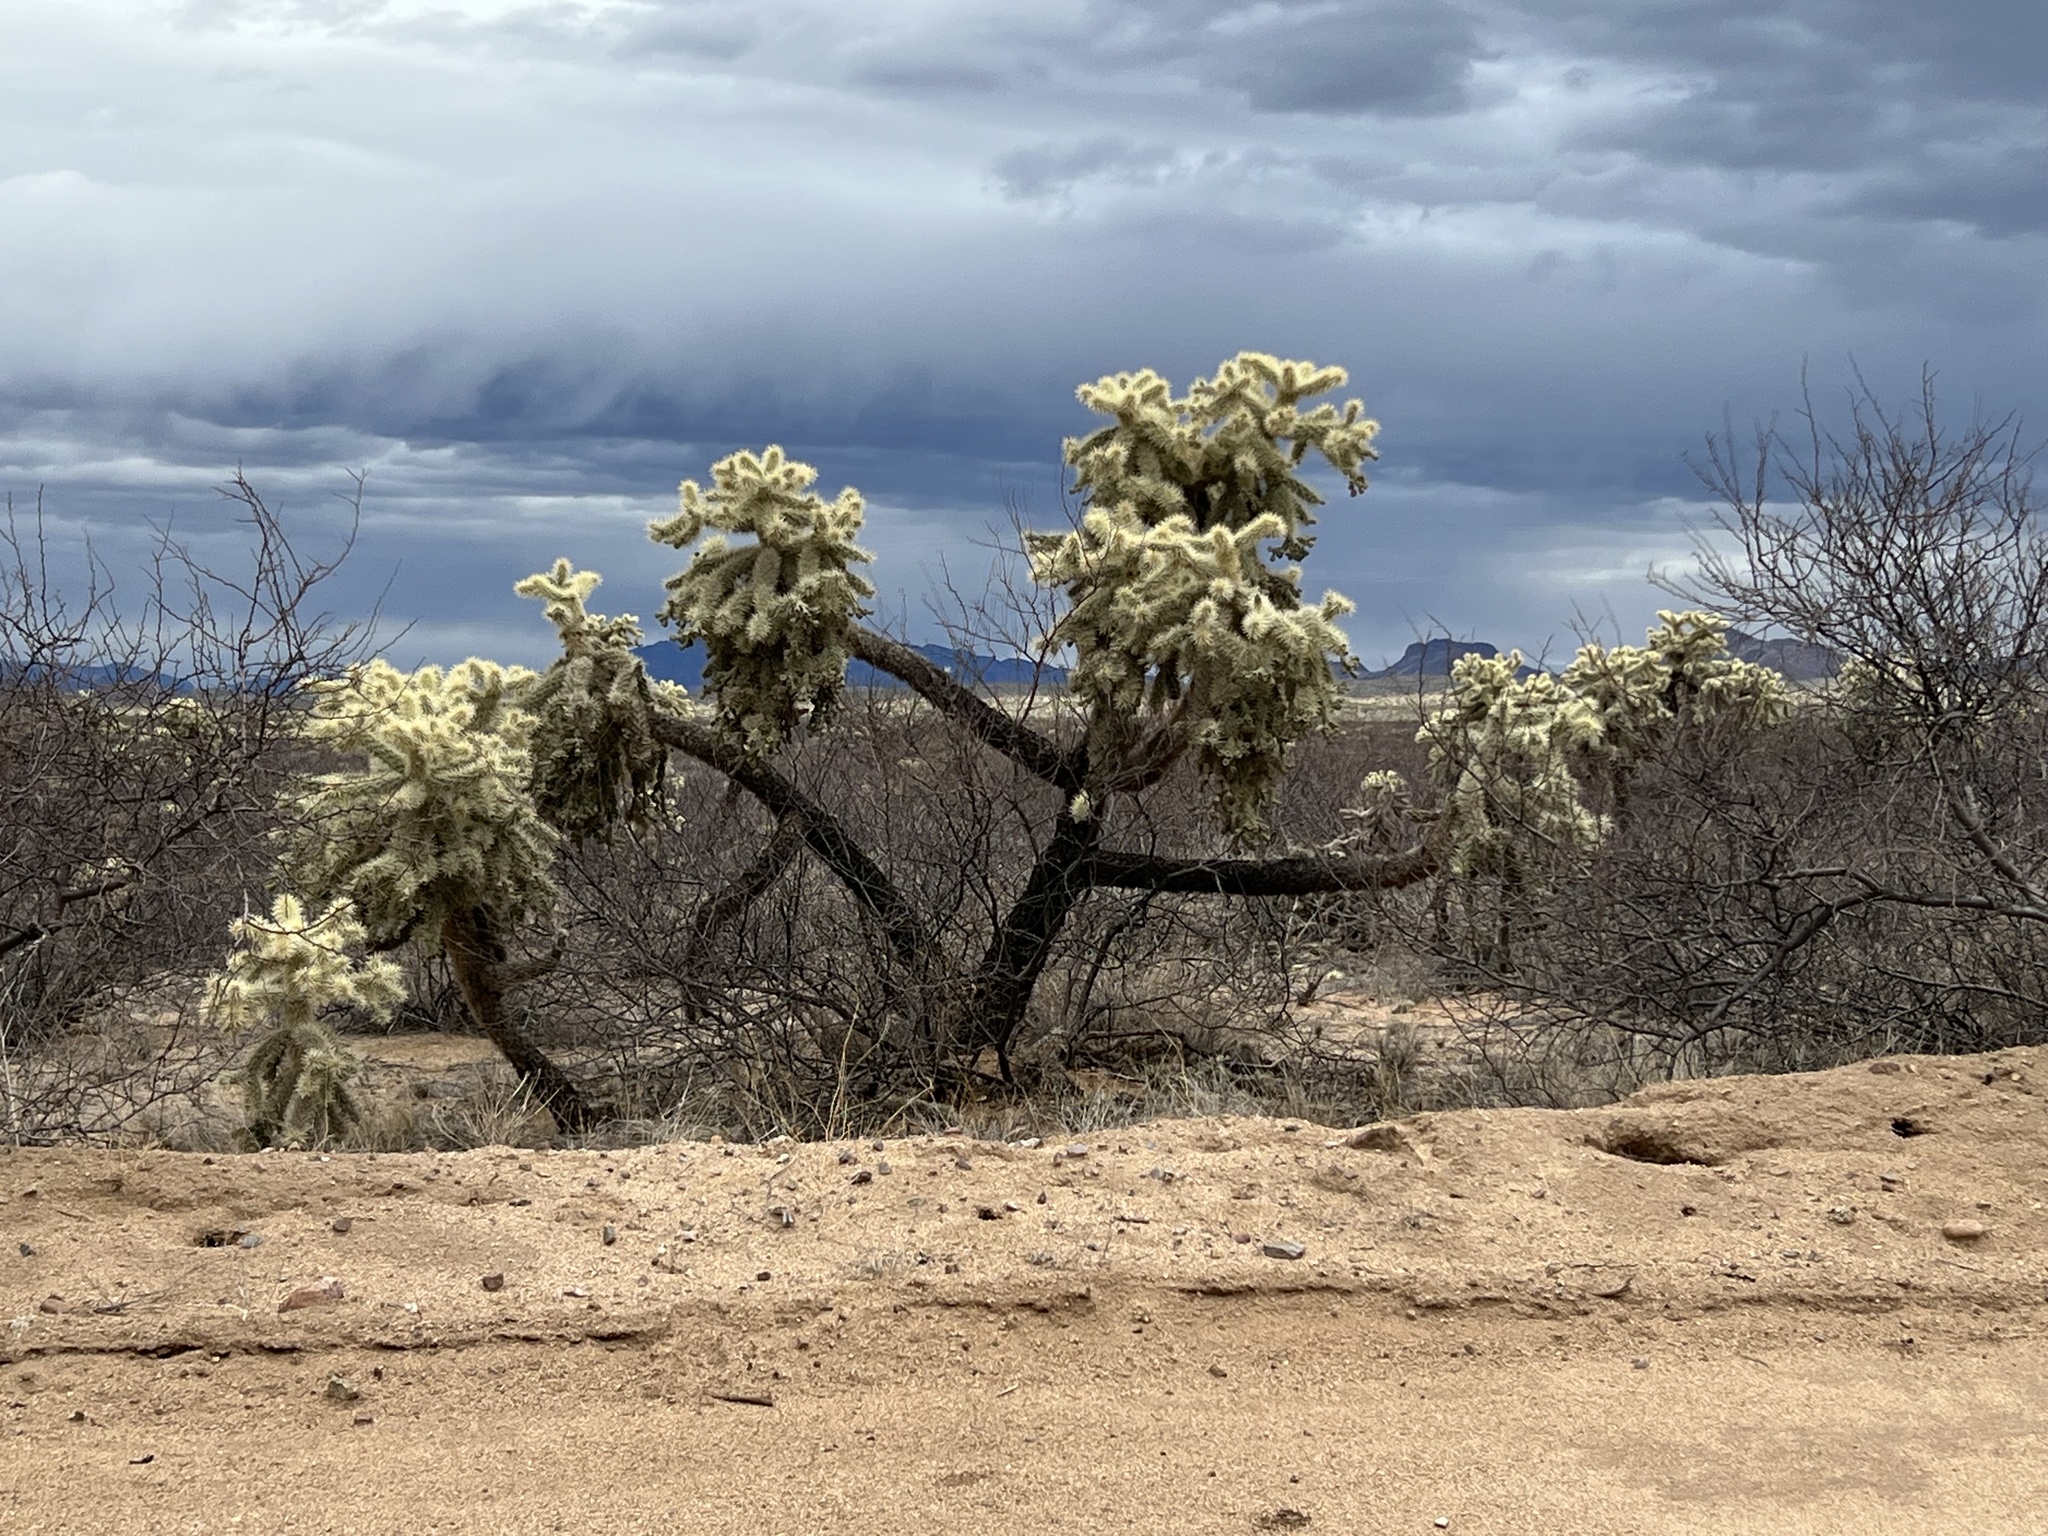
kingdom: Plantae
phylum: Tracheophyta
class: Magnoliopsida
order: Caryophyllales
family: Cactaceae
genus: Cylindropuntia
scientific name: Cylindropuntia fulgida
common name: Jumping cholla
